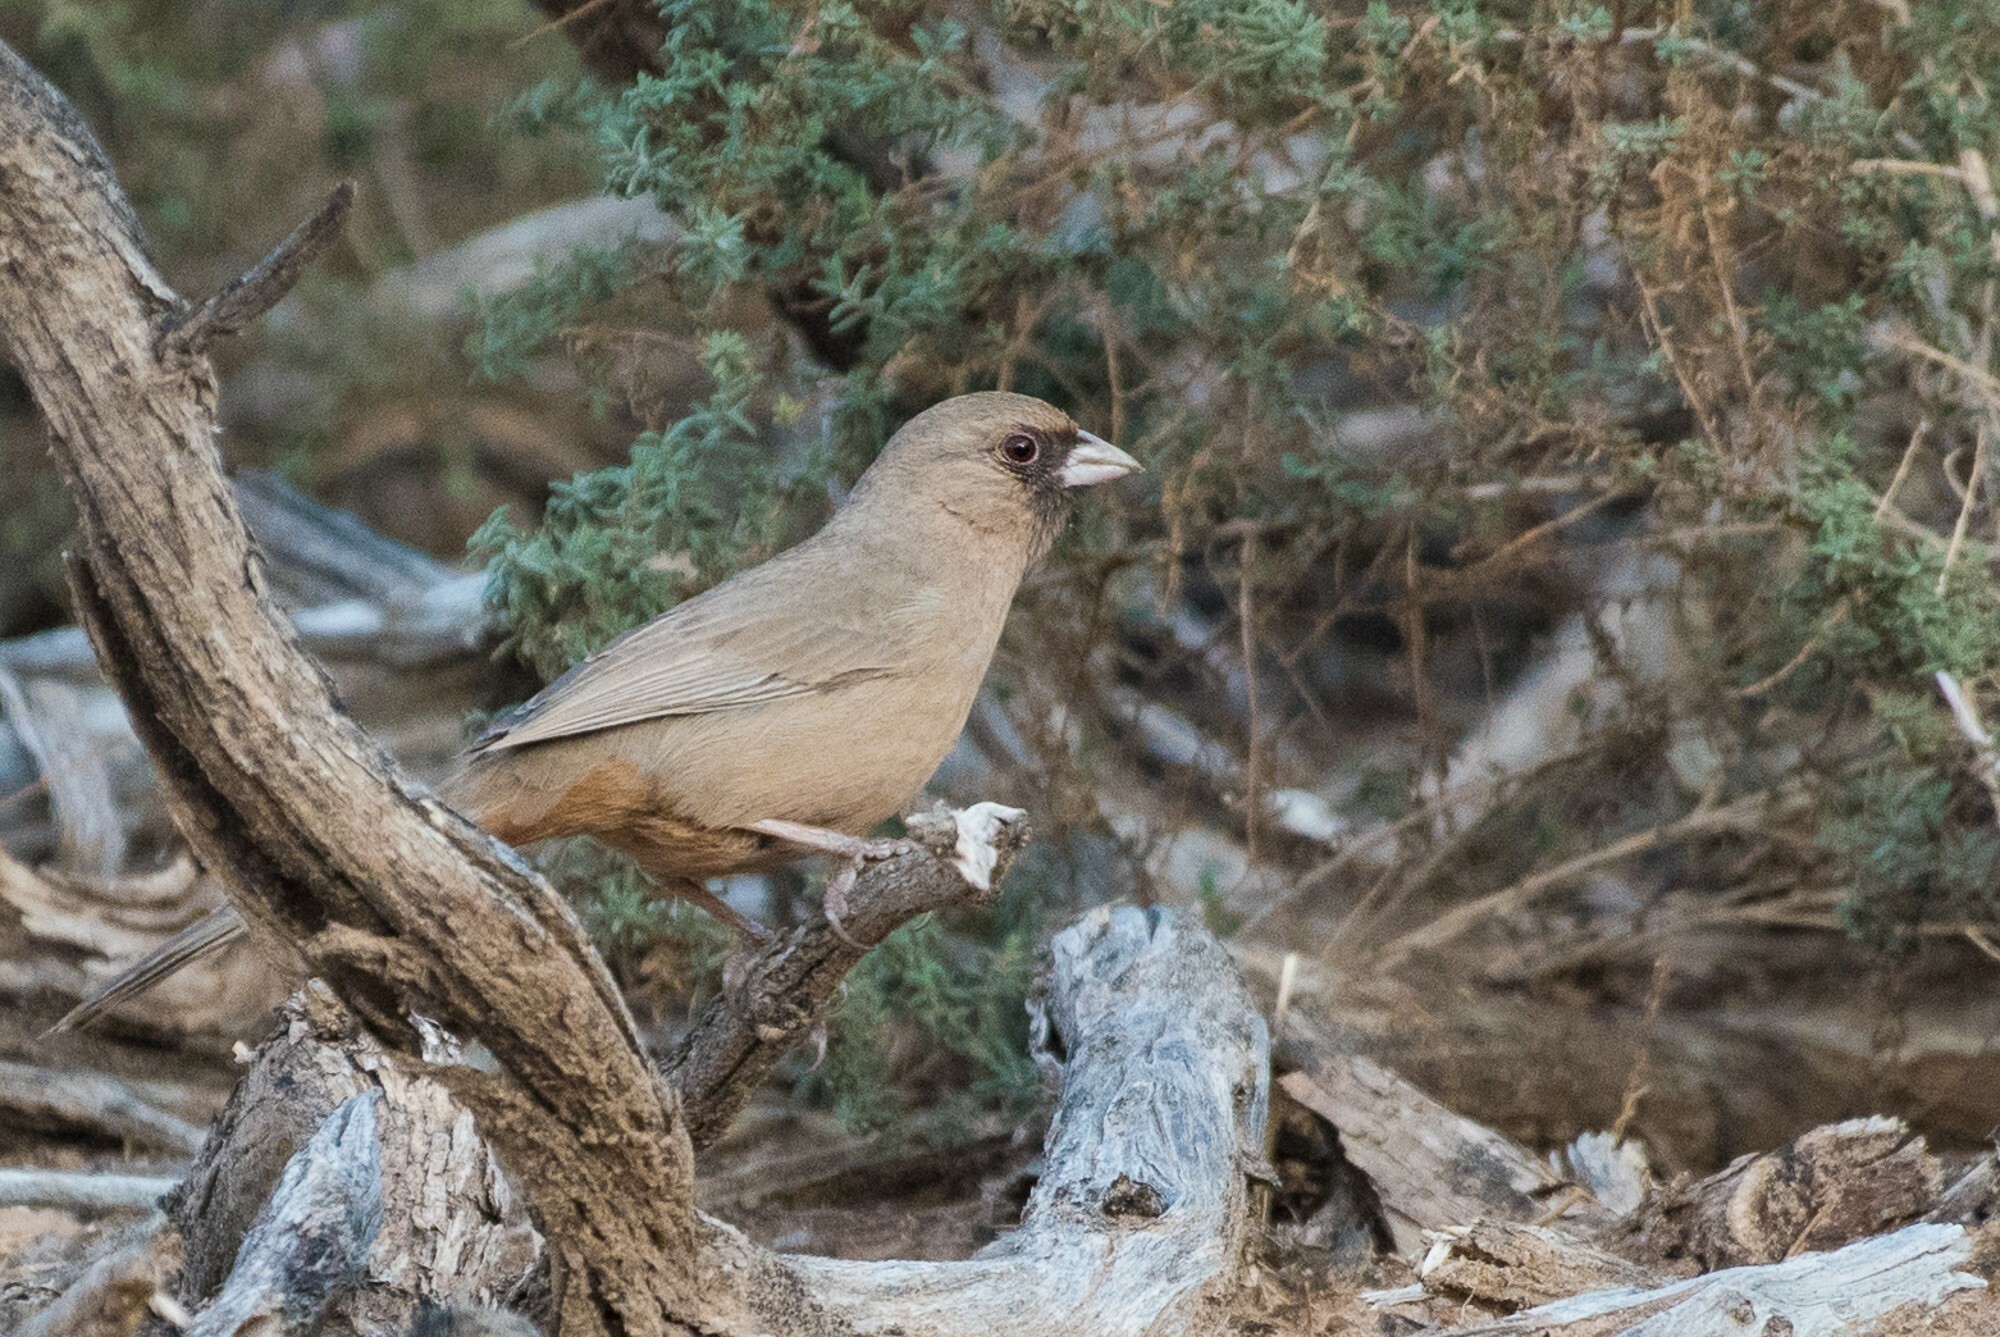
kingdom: Animalia
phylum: Chordata
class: Aves
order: Passeriformes
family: Passerellidae
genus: Melozone
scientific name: Melozone aberti
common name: Abert's towhee
